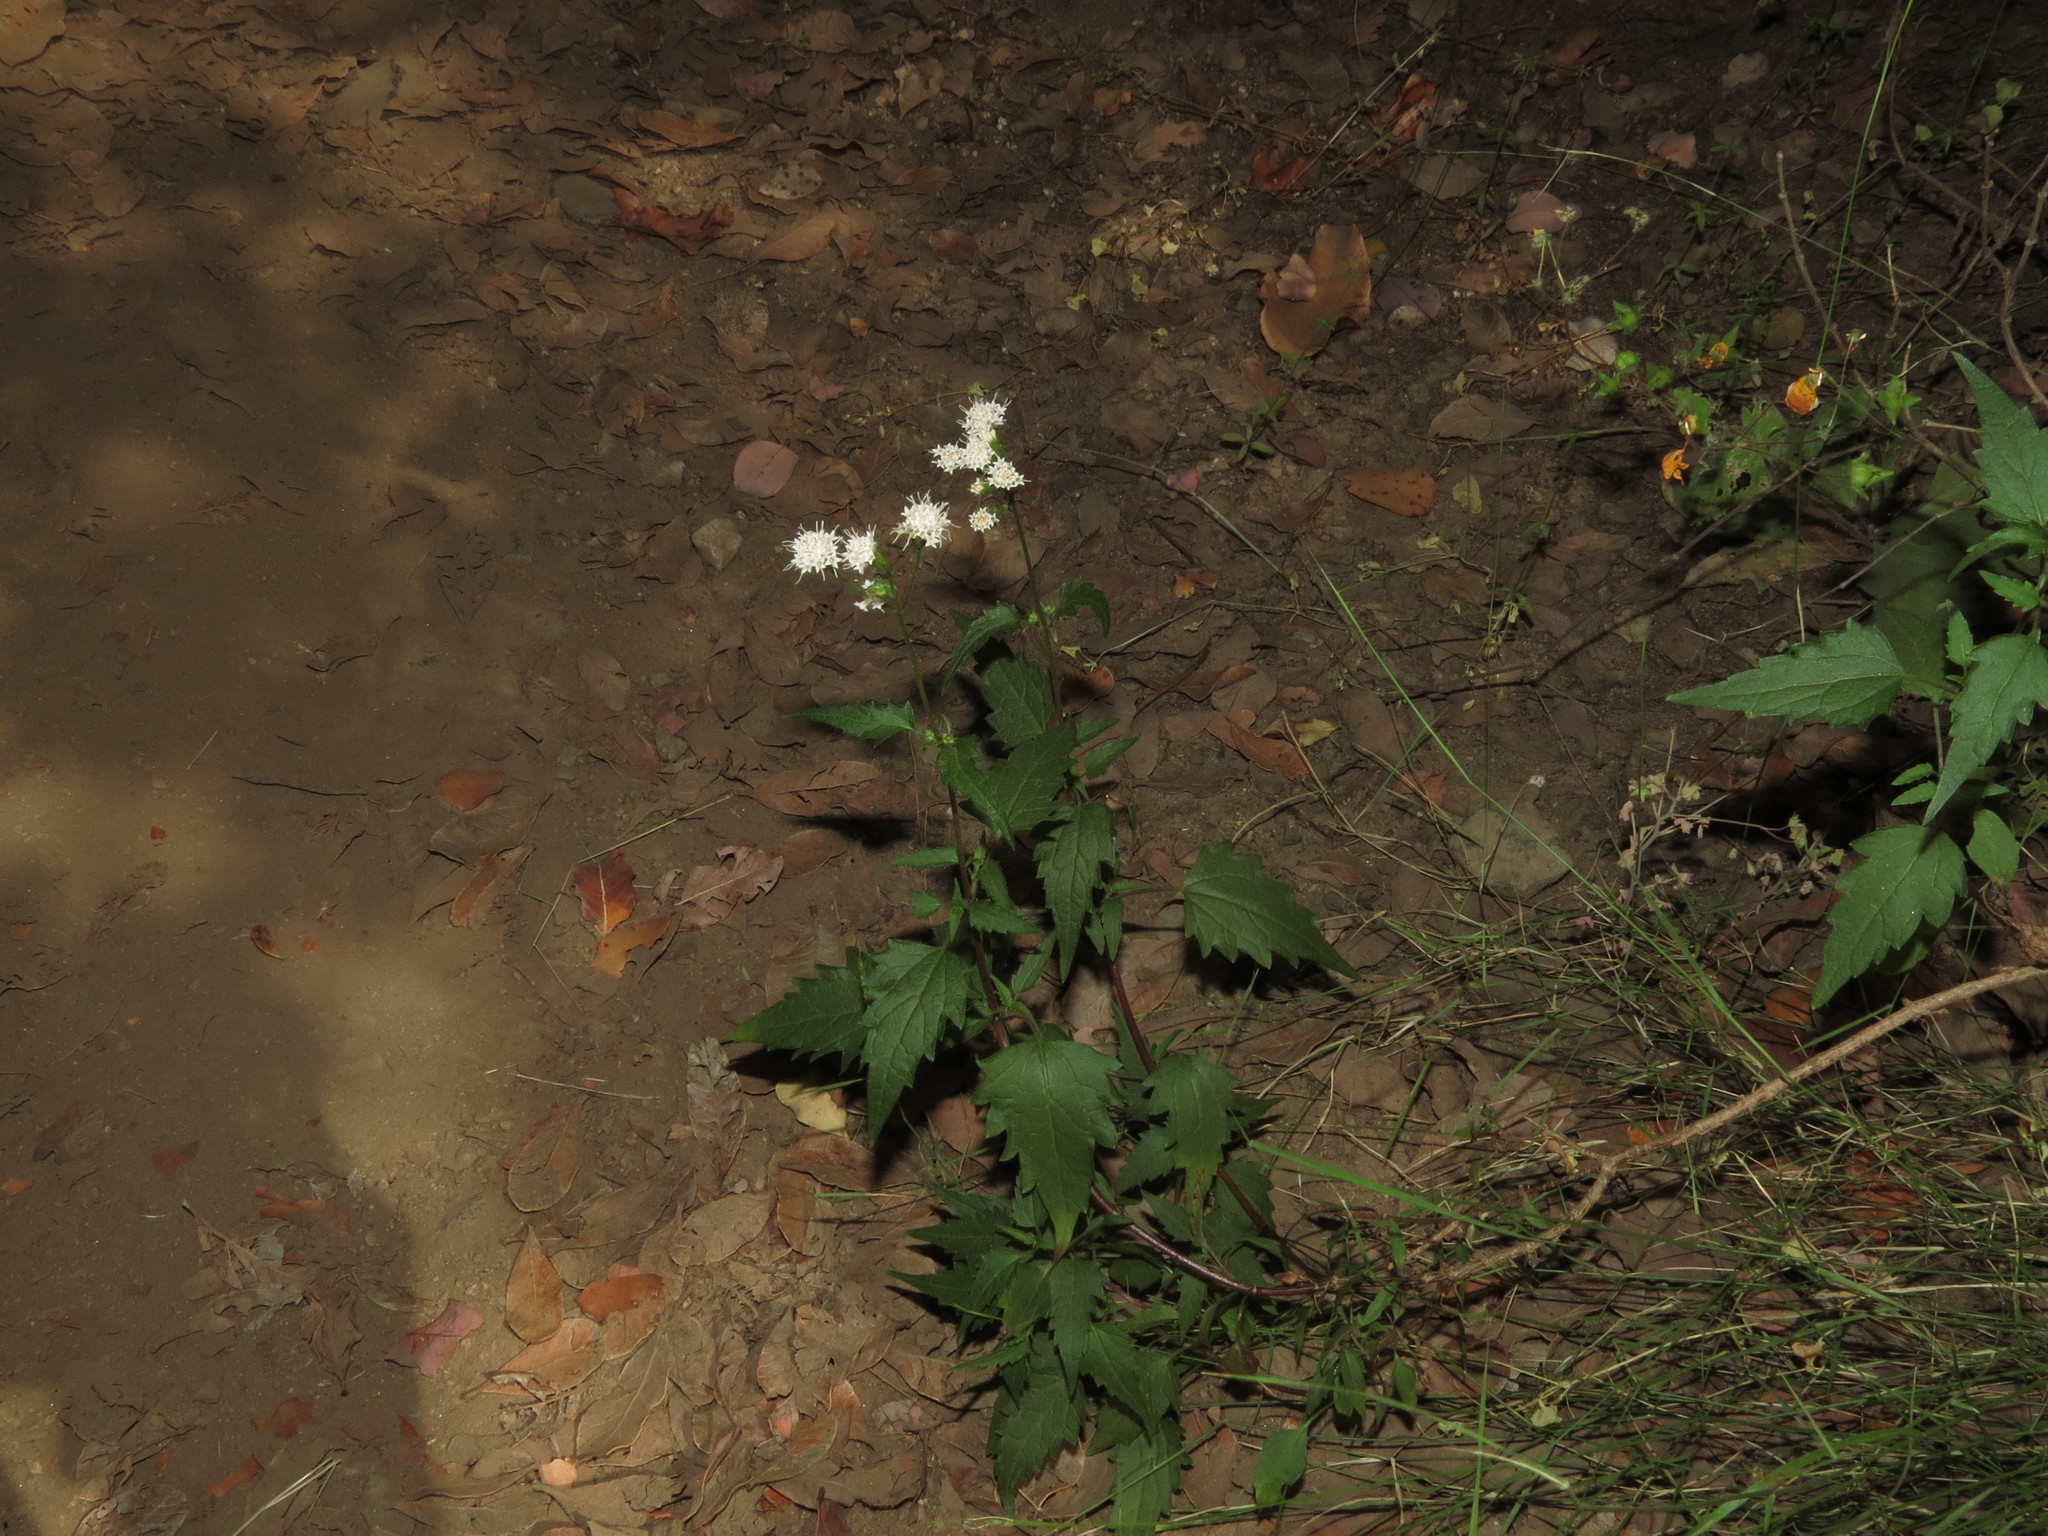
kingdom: Plantae
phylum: Tracheophyta
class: Magnoliopsida
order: Asterales
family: Asteraceae
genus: Ageratina
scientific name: Ageratina glechonophylla
